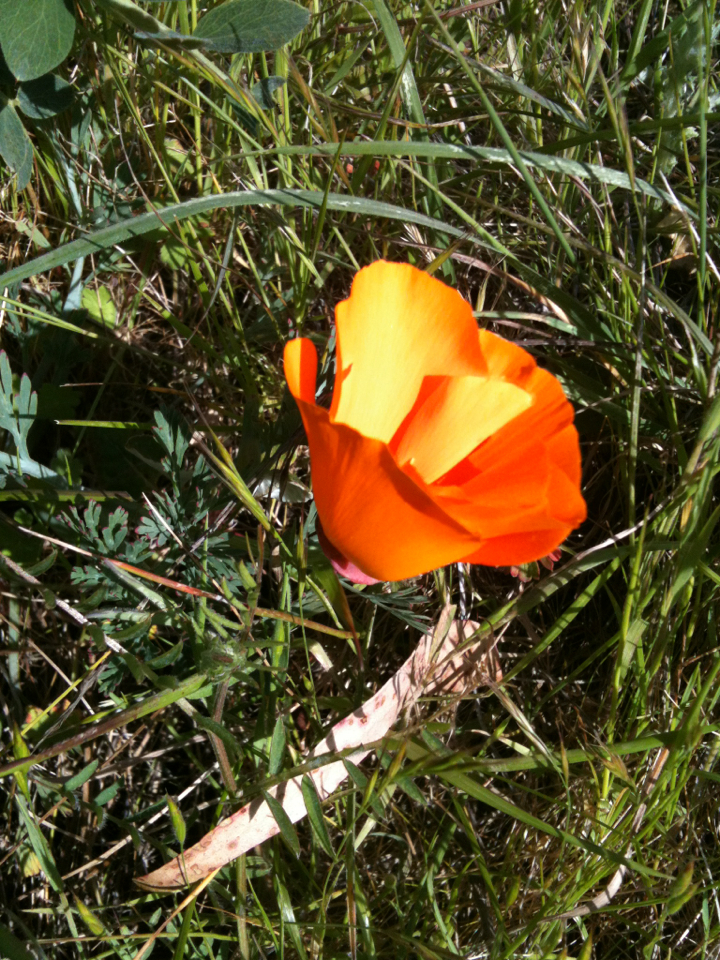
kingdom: Plantae
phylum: Tracheophyta
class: Magnoliopsida
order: Ranunculales
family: Papaveraceae
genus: Eschscholzia
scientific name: Eschscholzia californica
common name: California poppy
